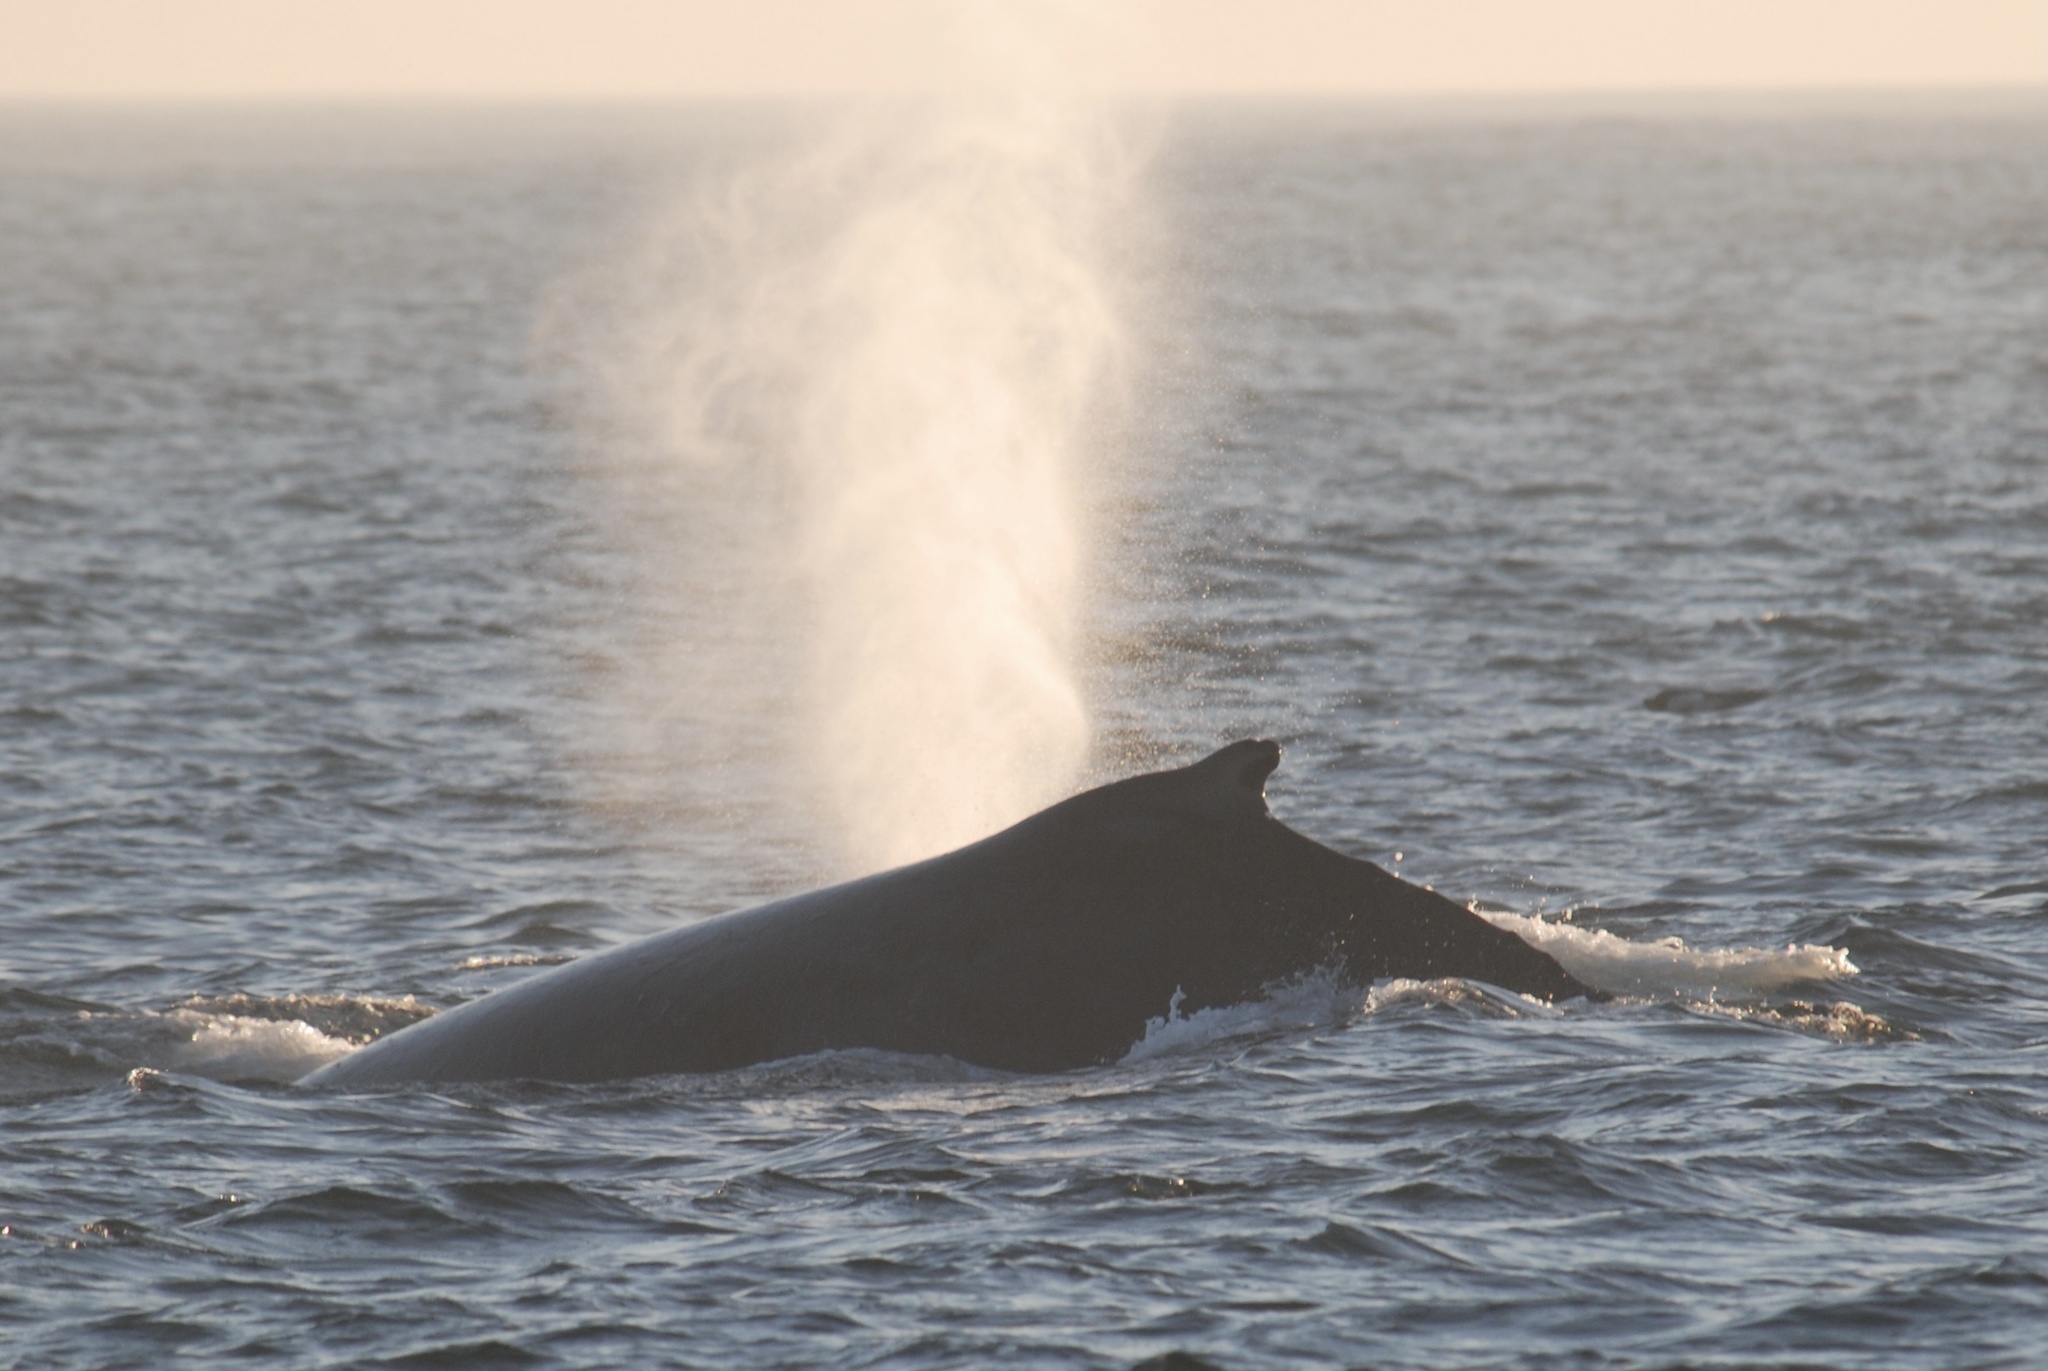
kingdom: Animalia
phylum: Chordata
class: Mammalia
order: Cetacea
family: Balaenopteridae
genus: Megaptera
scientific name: Megaptera novaeangliae
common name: Humpback whale
